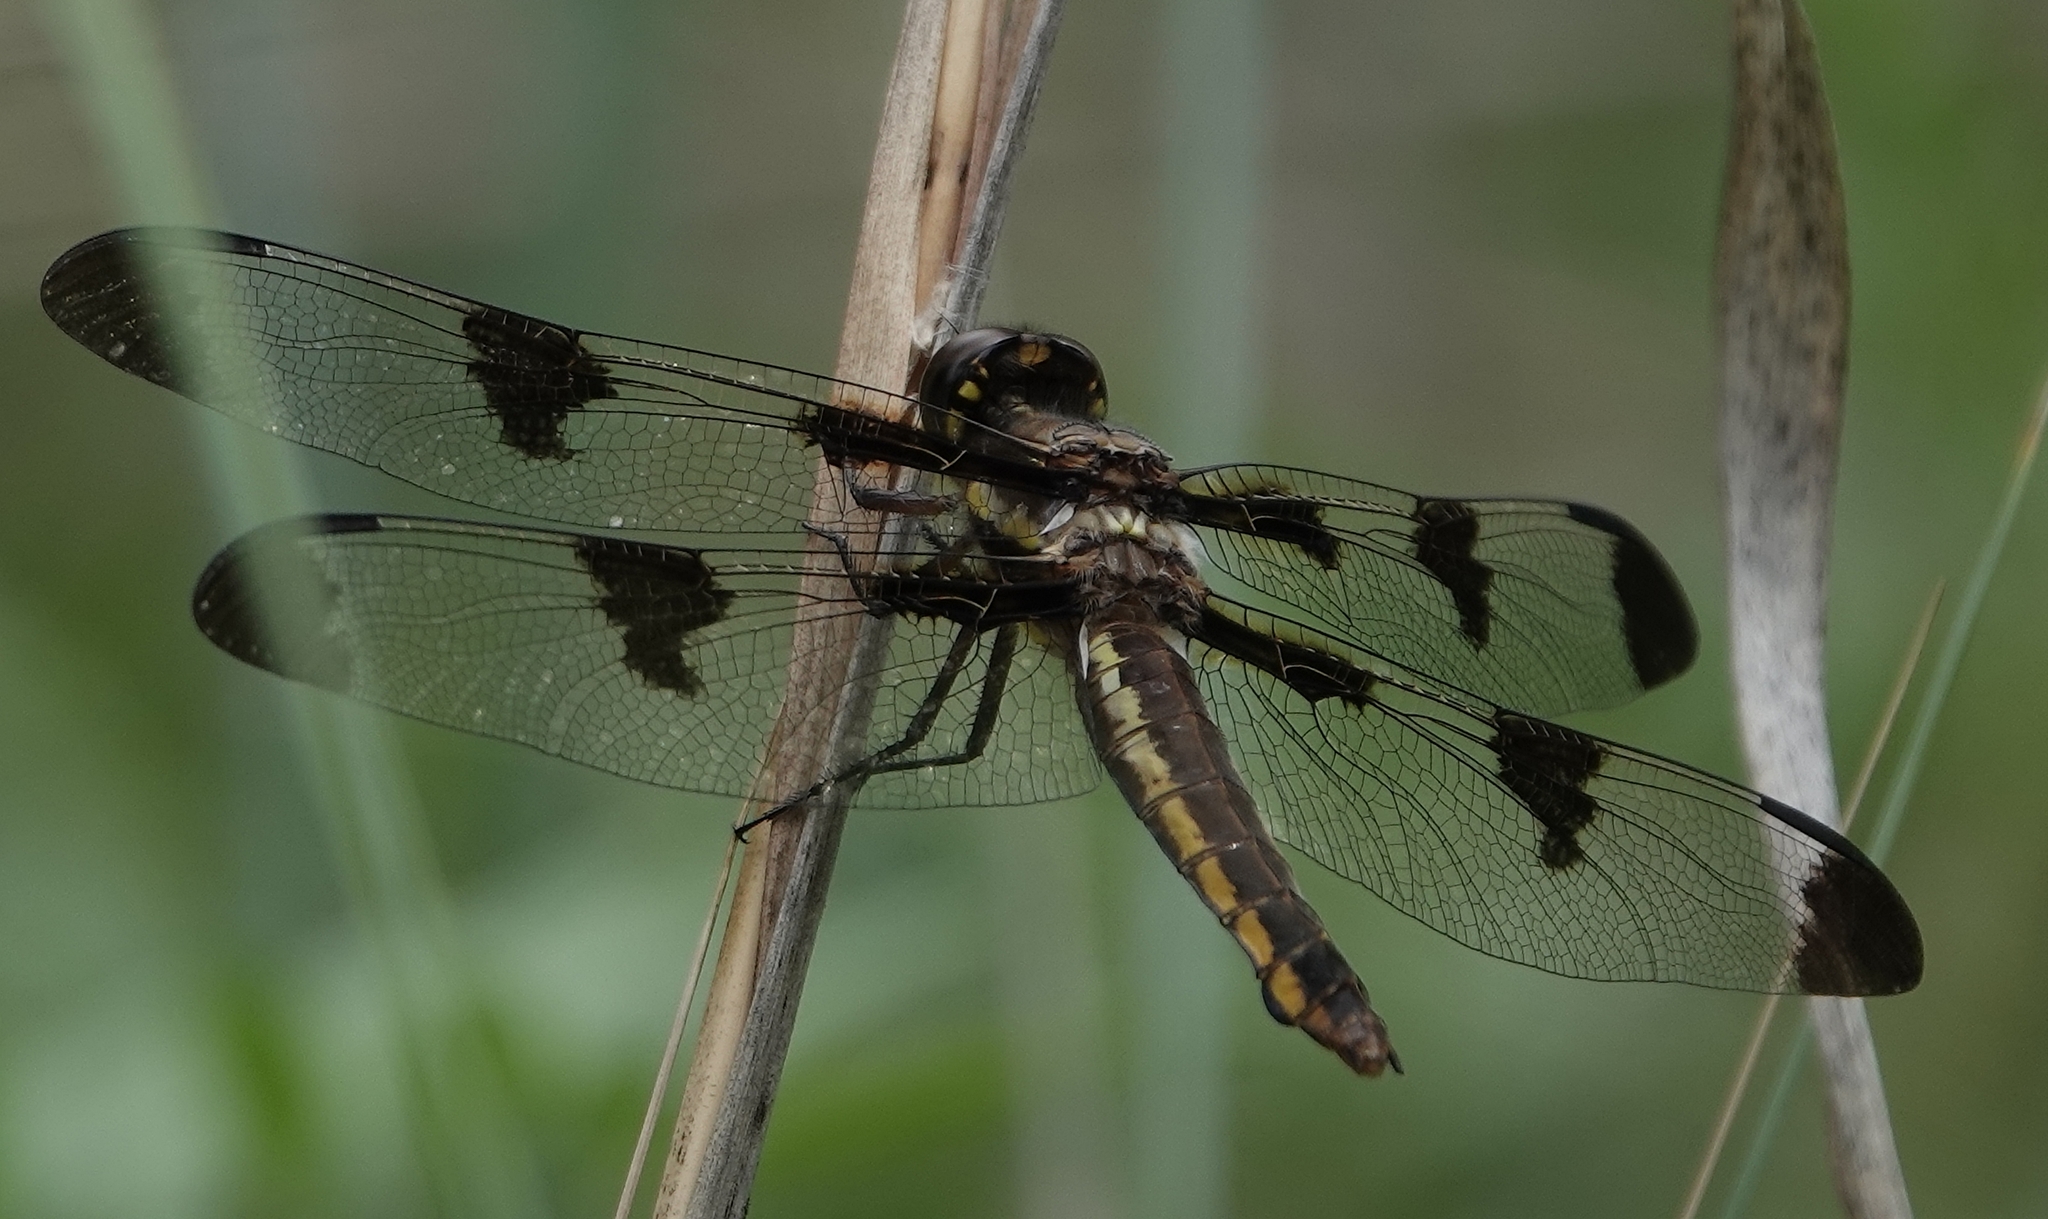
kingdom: Animalia
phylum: Arthropoda
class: Insecta
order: Odonata
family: Libellulidae
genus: Libellula
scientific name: Libellula pulchella
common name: Twelve-spotted skimmer
